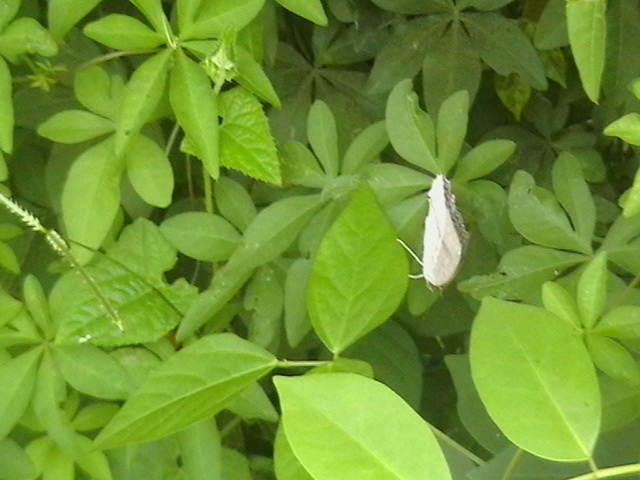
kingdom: Animalia
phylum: Arthropoda
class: Insecta
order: Lepidoptera
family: Nymphalidae
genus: Junonia
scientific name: Junonia atlites
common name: Grey pansy
